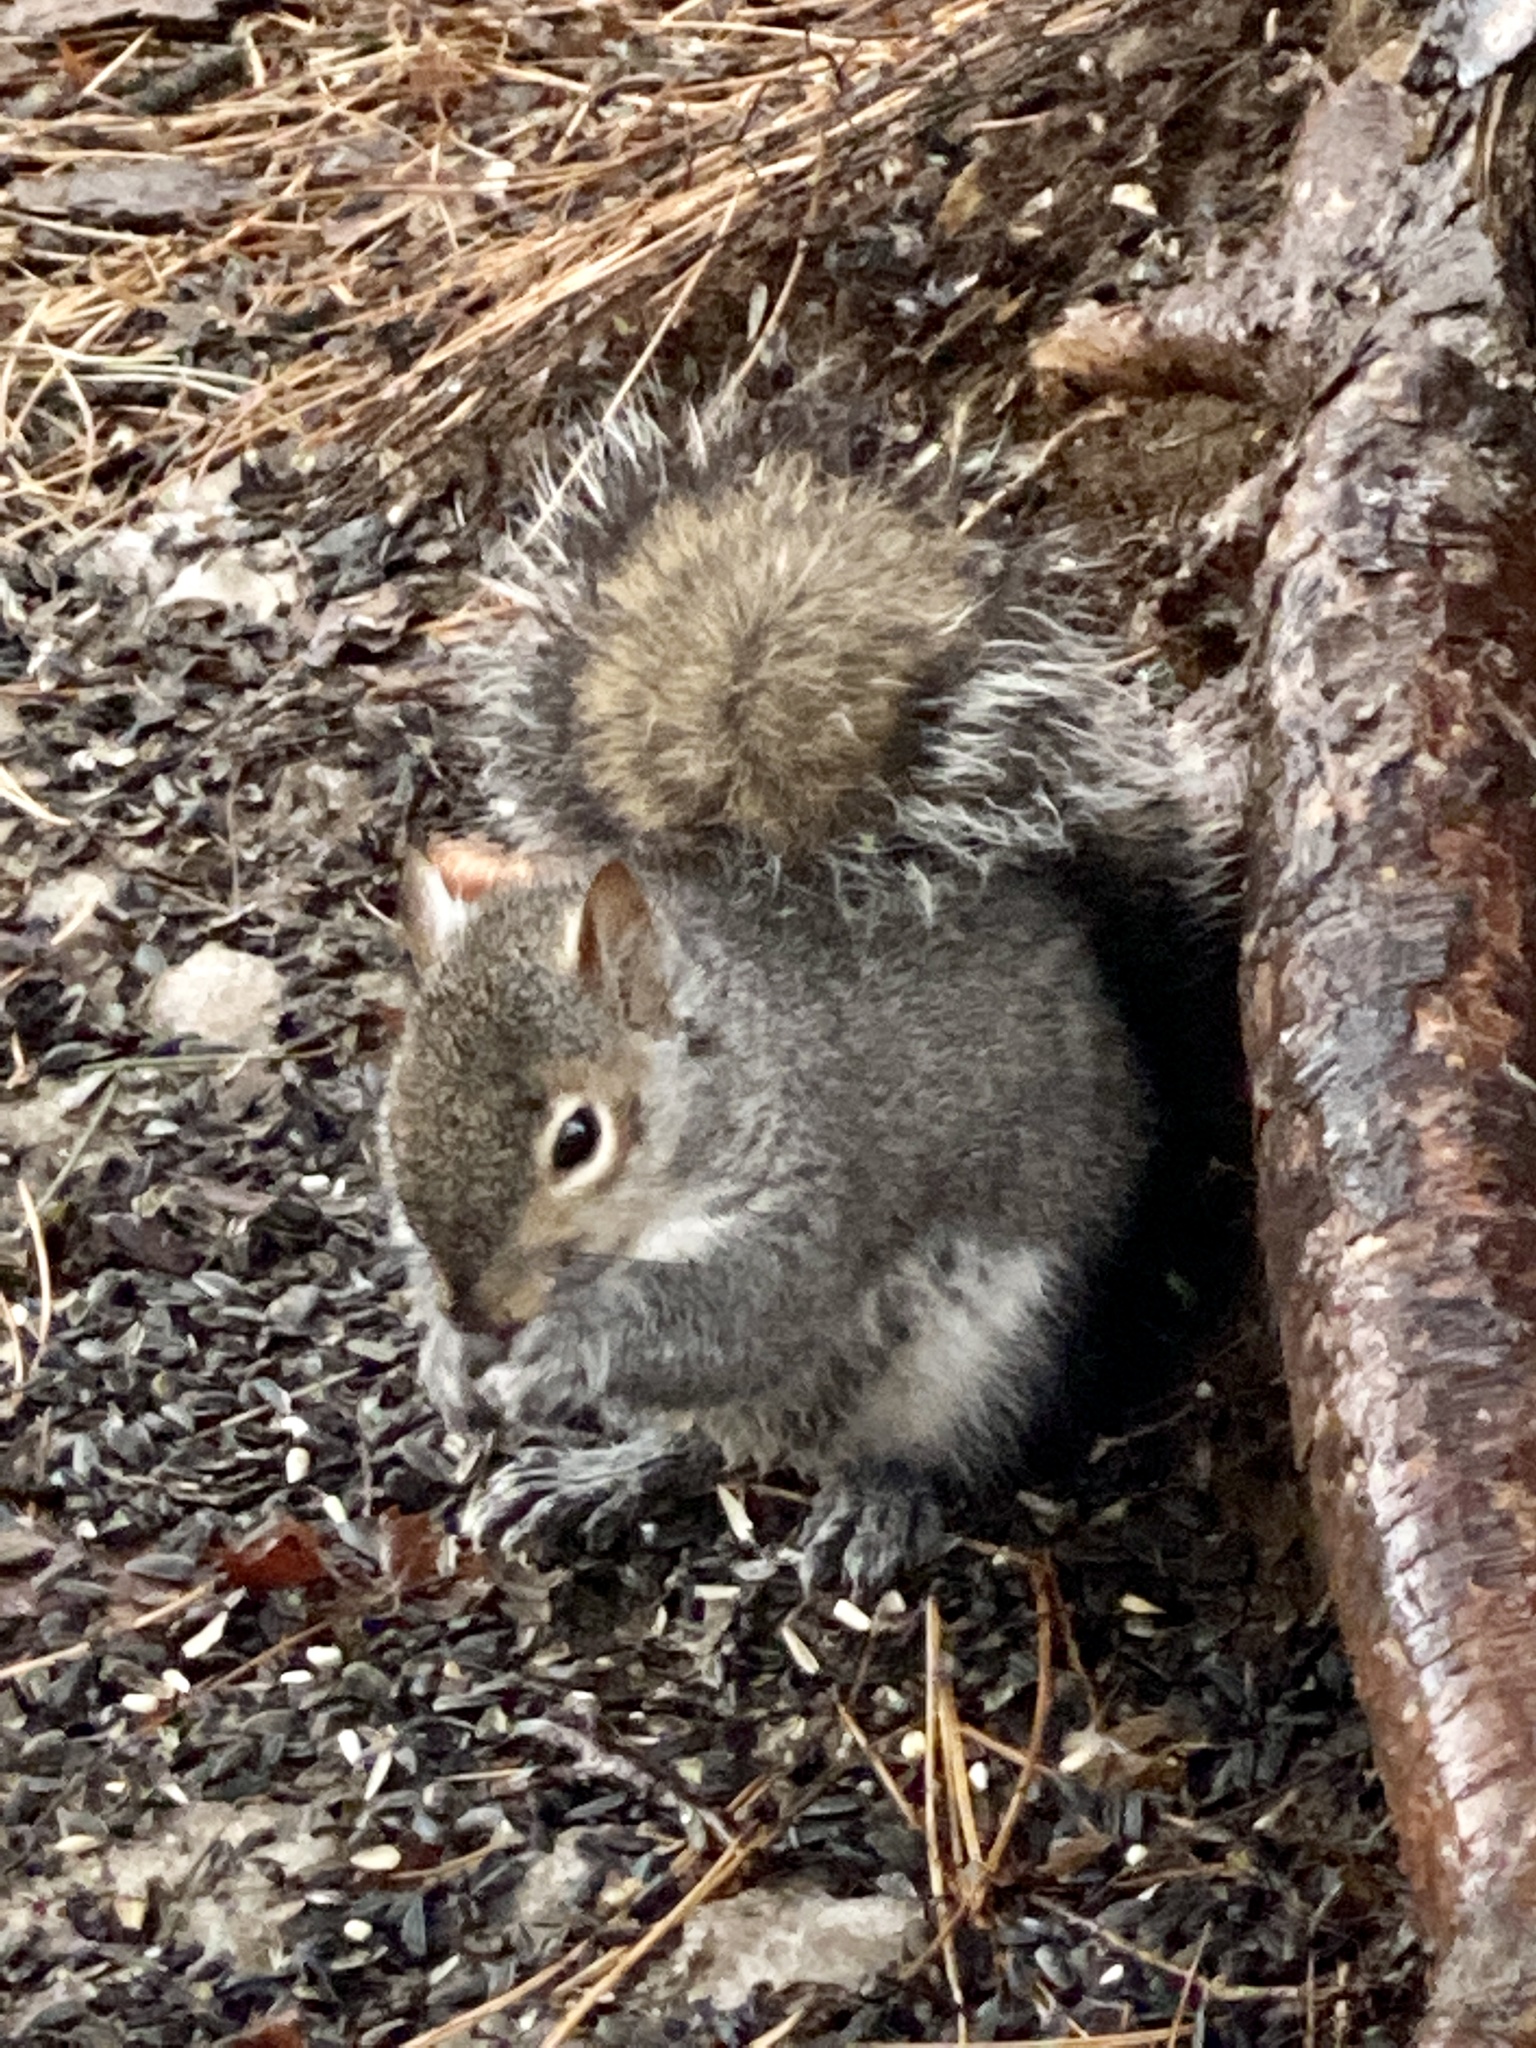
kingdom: Animalia
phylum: Chordata
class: Mammalia
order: Rodentia
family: Sciuridae
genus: Sciurus
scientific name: Sciurus carolinensis
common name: Eastern gray squirrel
